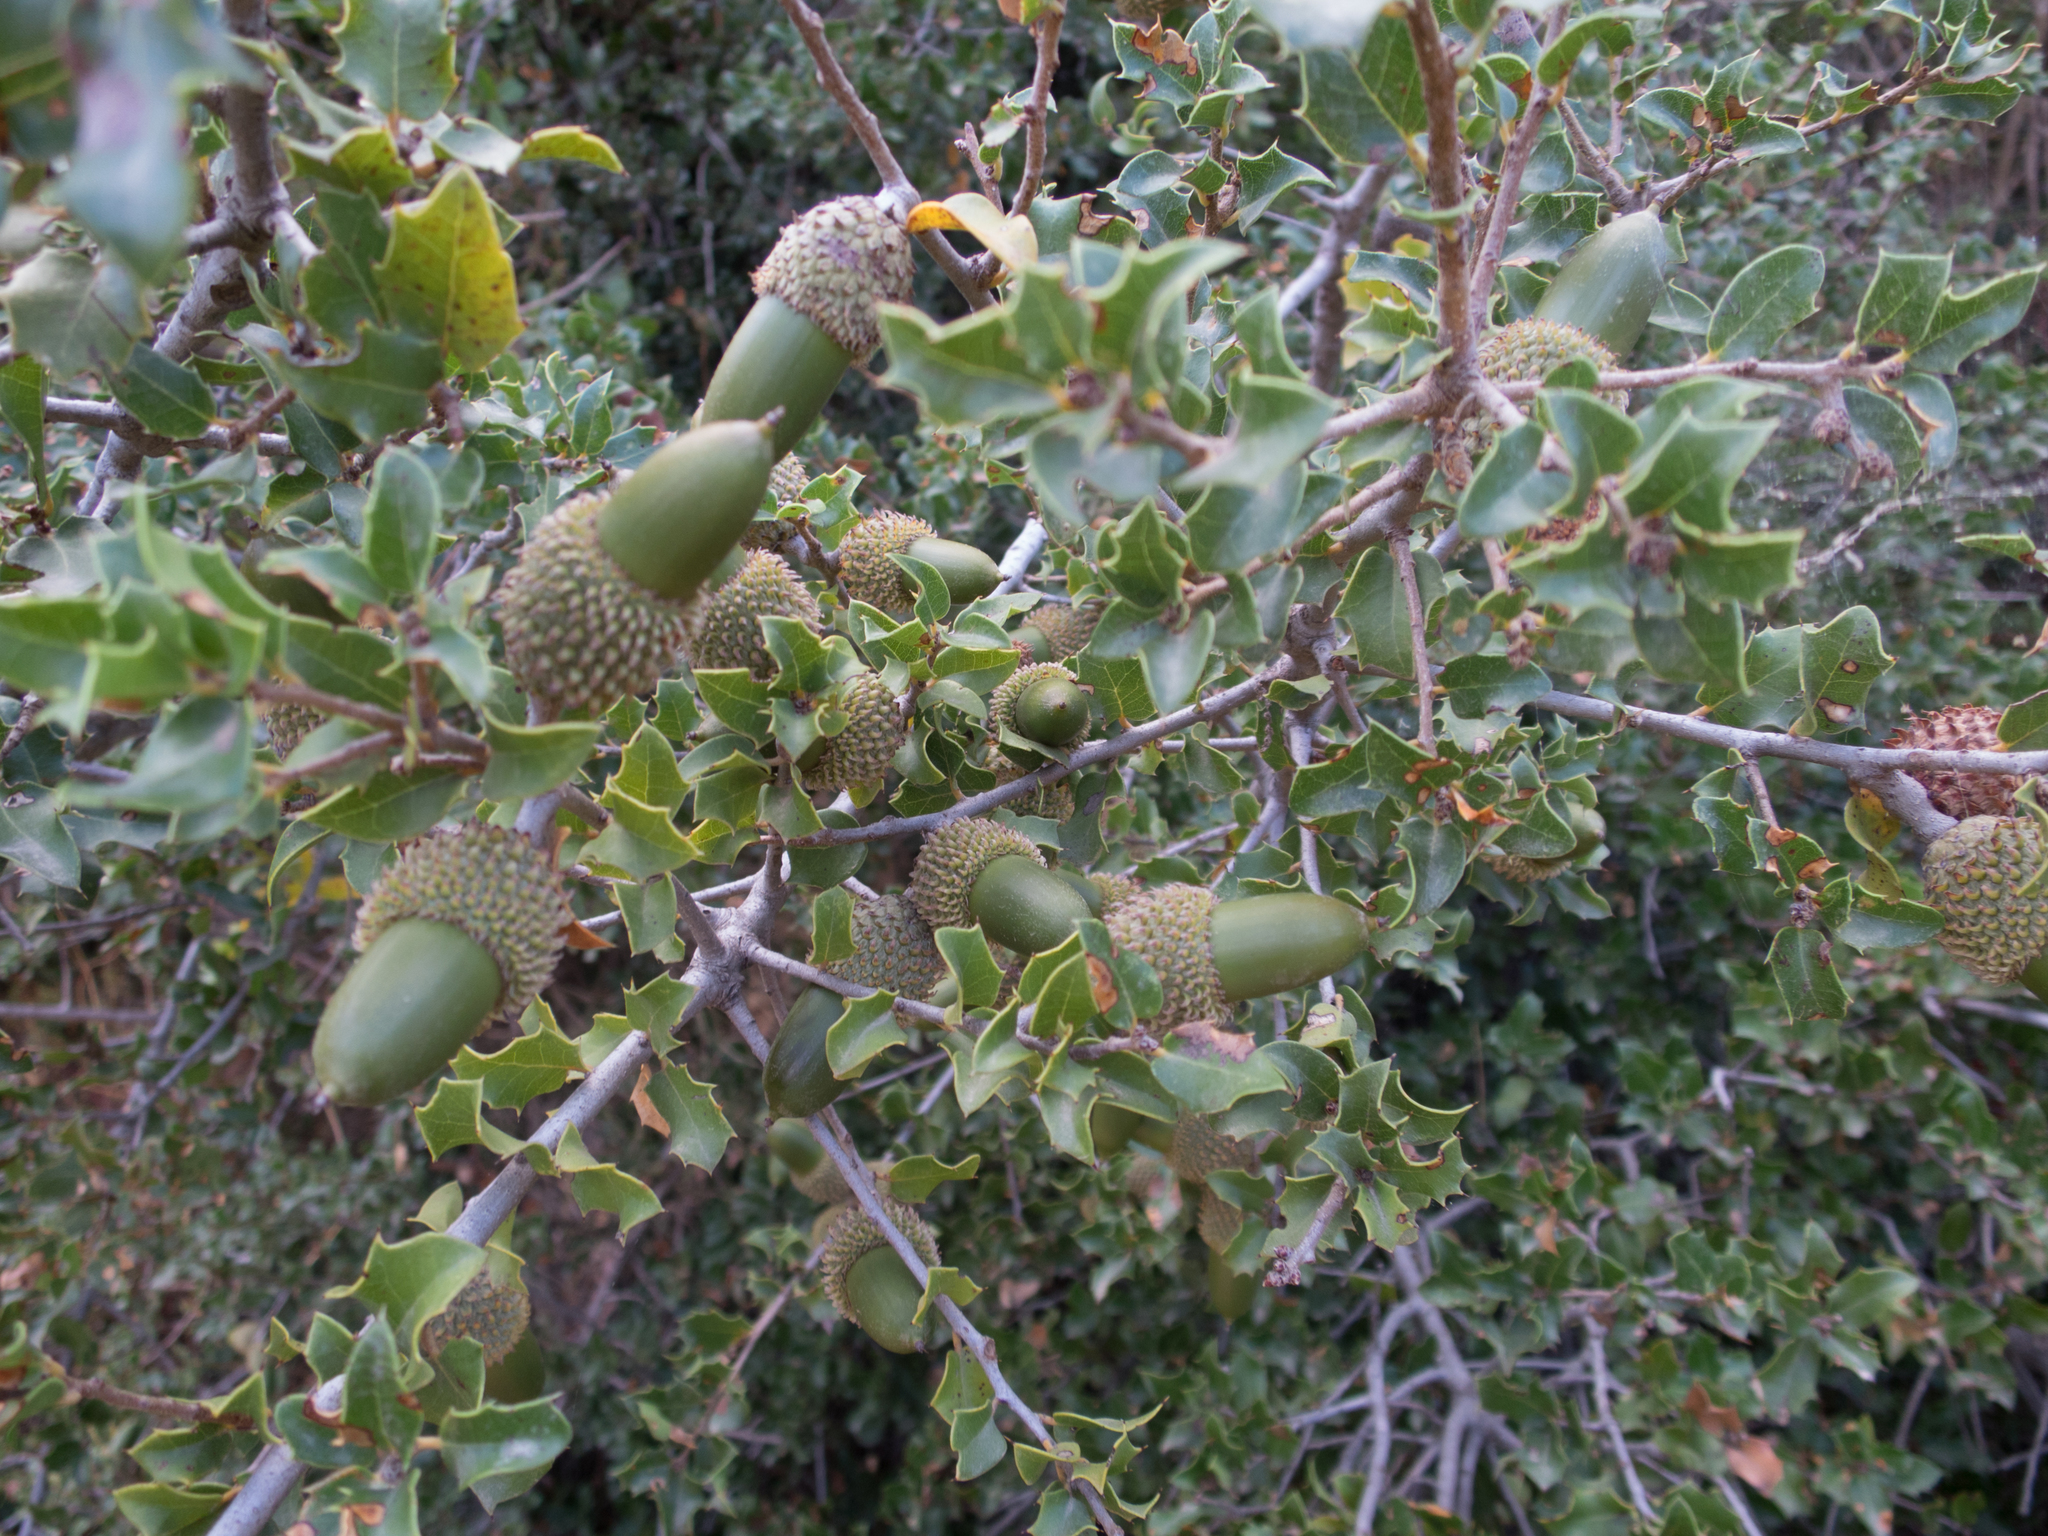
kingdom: Plantae
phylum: Tracheophyta
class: Magnoliopsida
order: Fagales
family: Fagaceae
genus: Quercus
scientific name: Quercus coccifera
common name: Kermes oak
